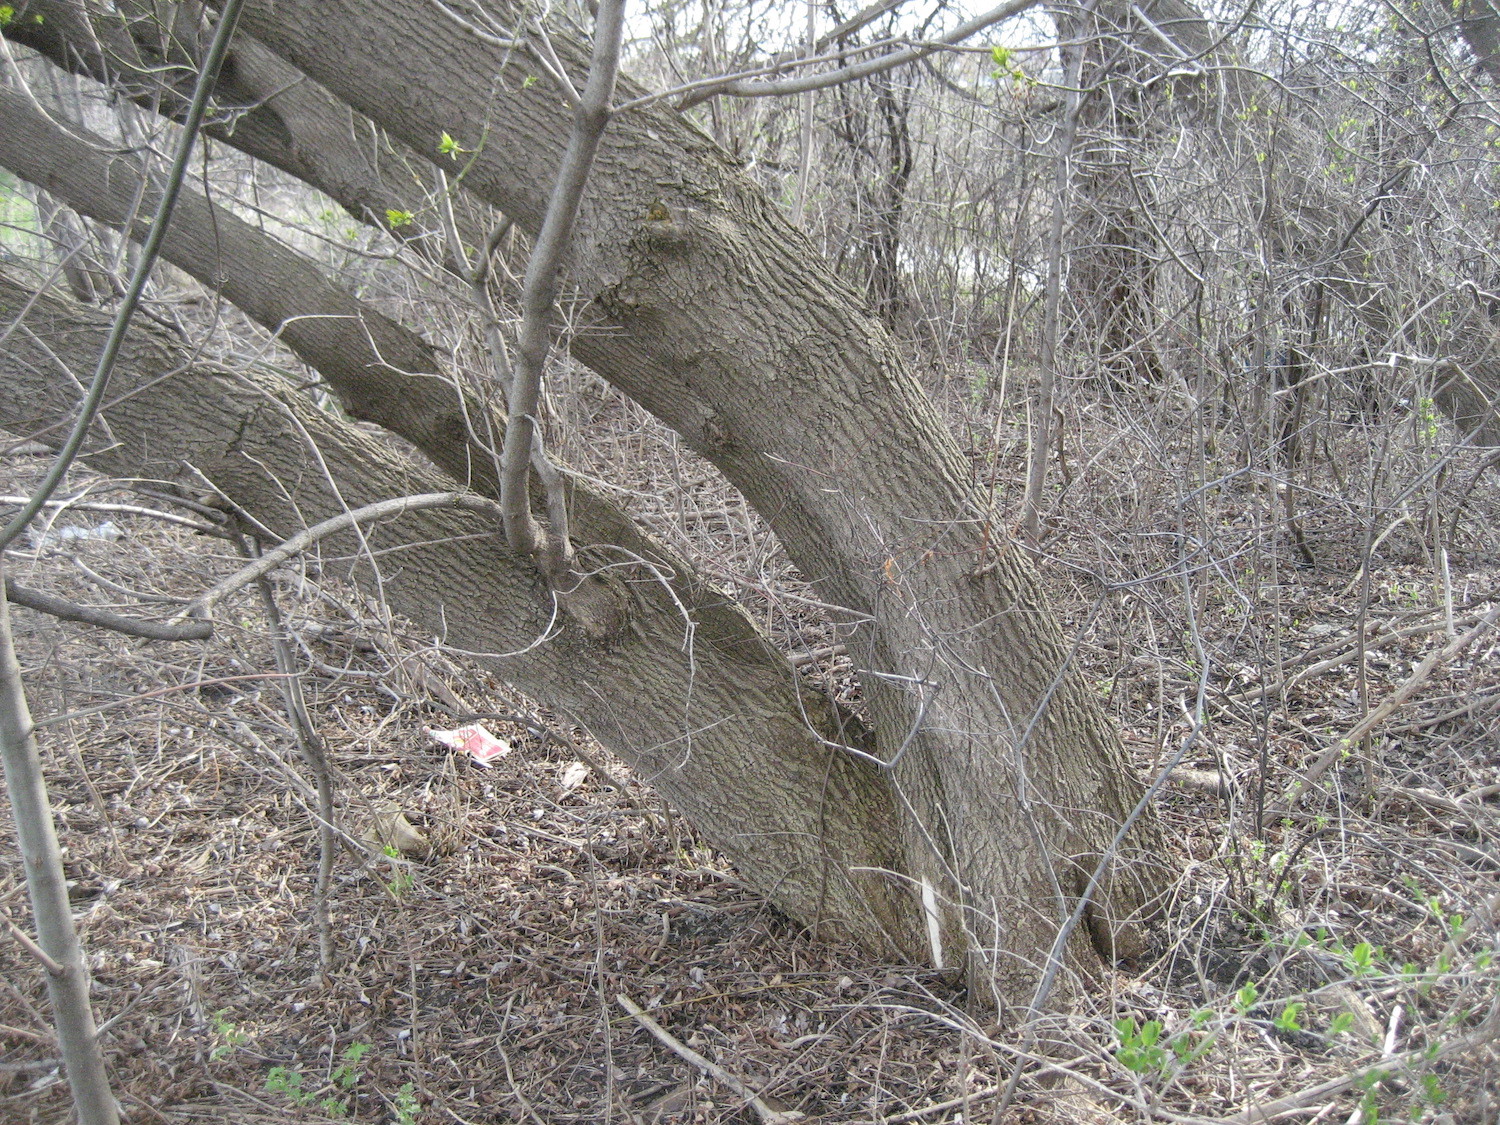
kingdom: Plantae
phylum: Tracheophyta
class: Magnoliopsida
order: Sapindales
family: Sapindaceae
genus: Acer
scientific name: Acer negundo
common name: Ashleaf maple
